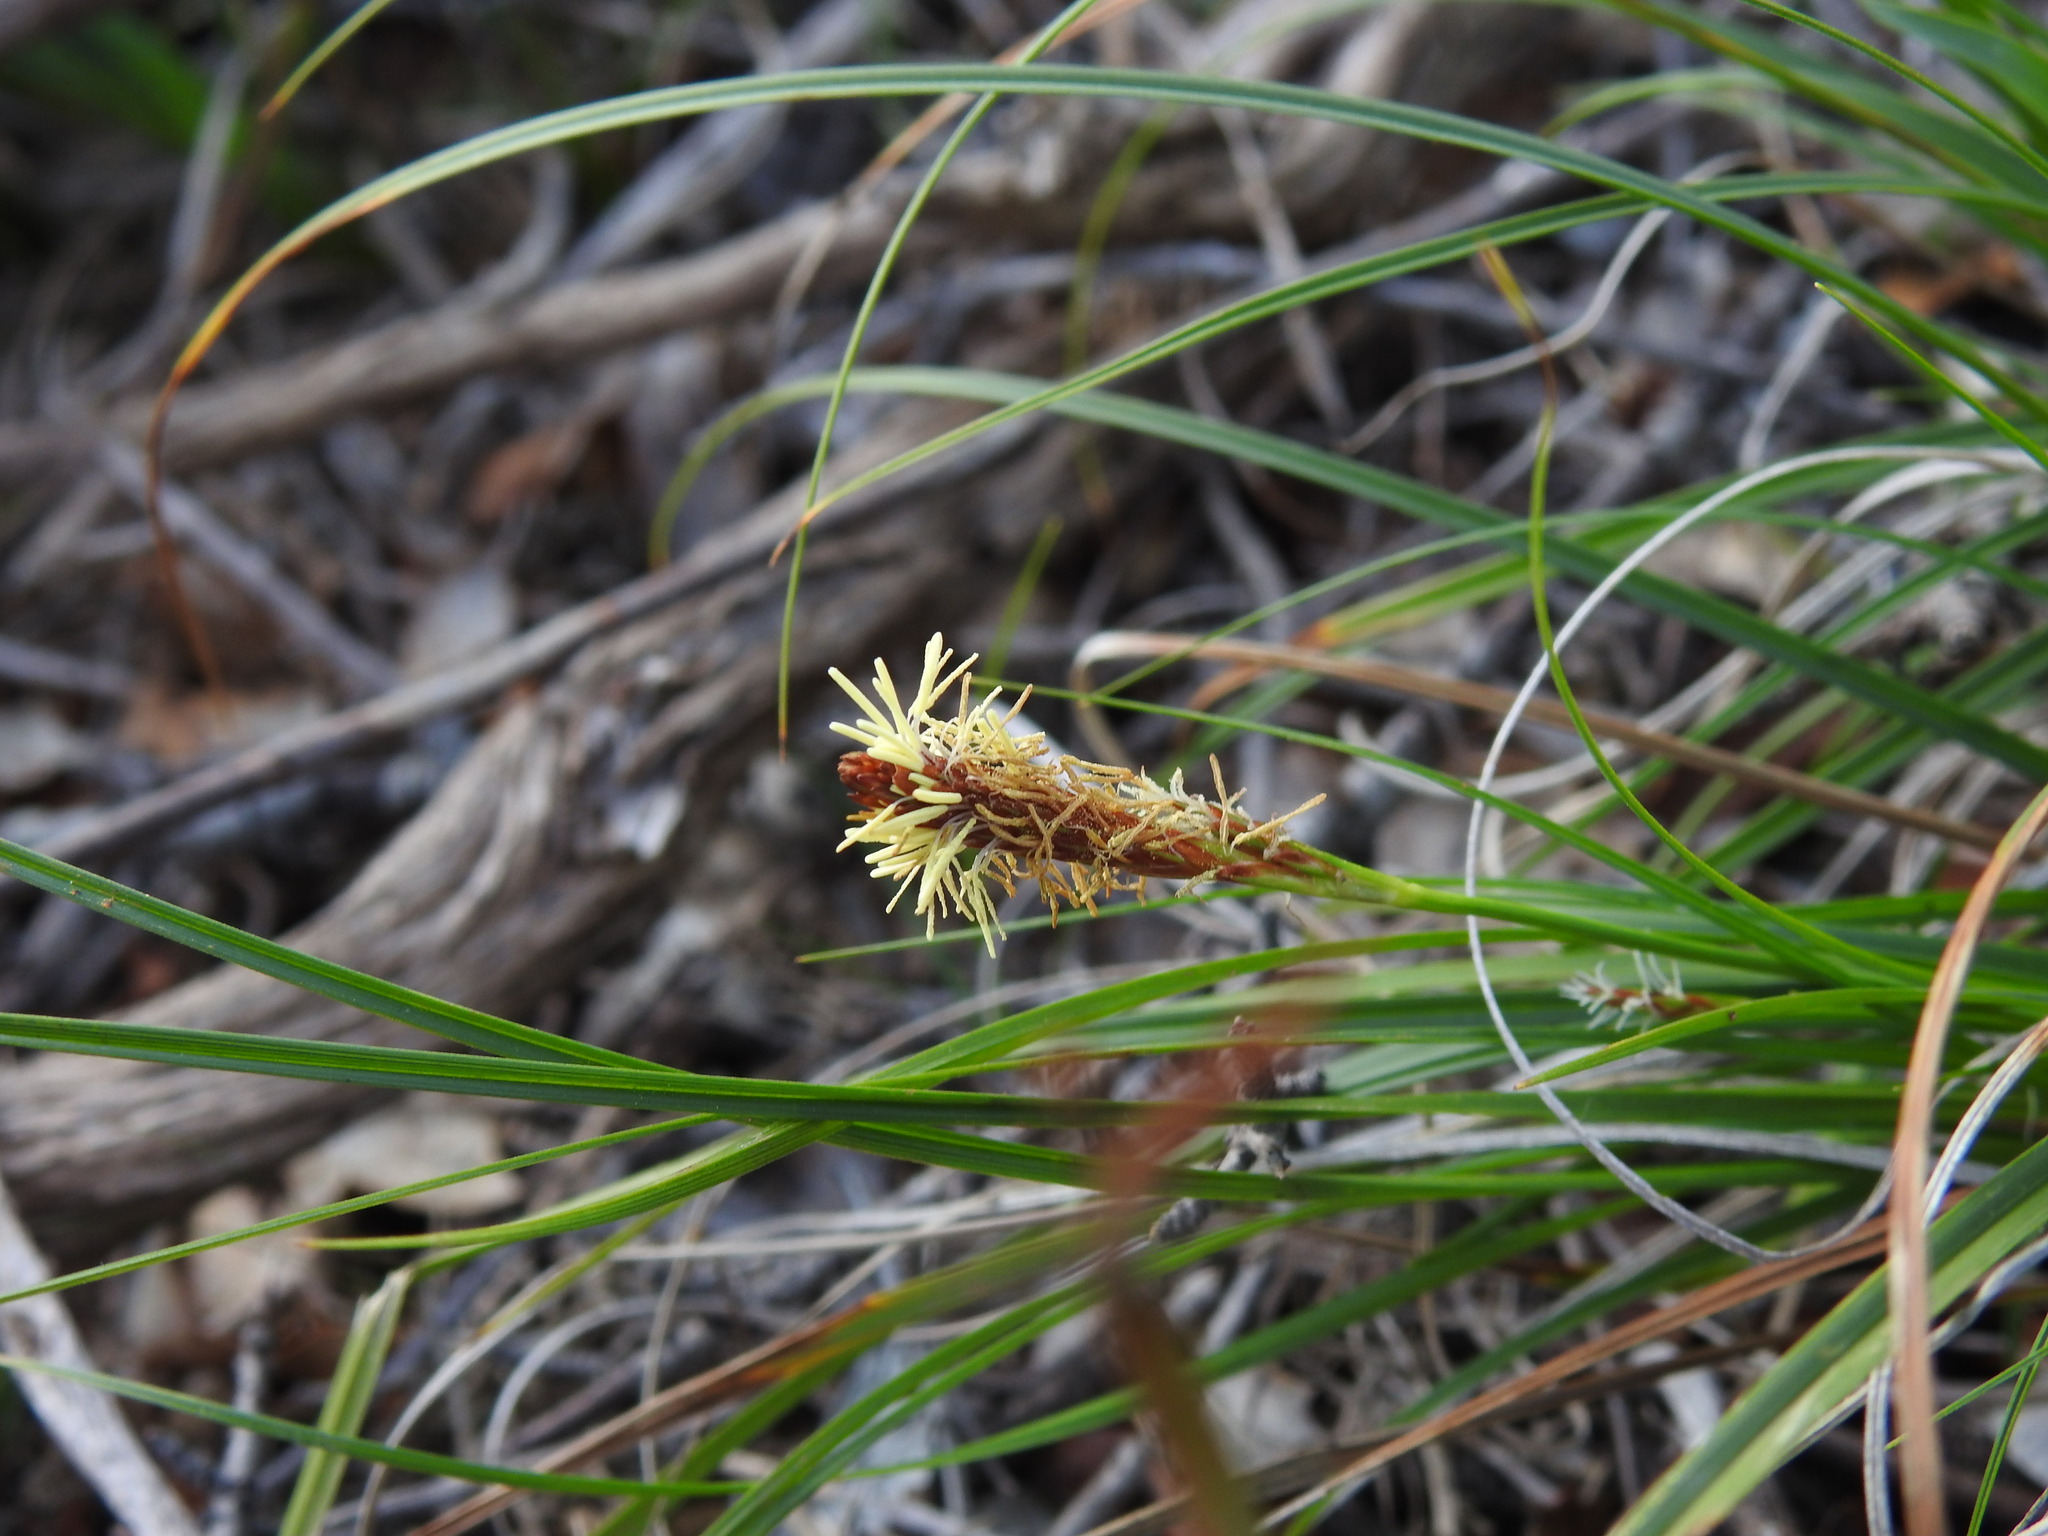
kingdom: Plantae
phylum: Tracheophyta
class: Liliopsida
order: Poales
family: Cyperaceae
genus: Carex
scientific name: Carex halleriana
